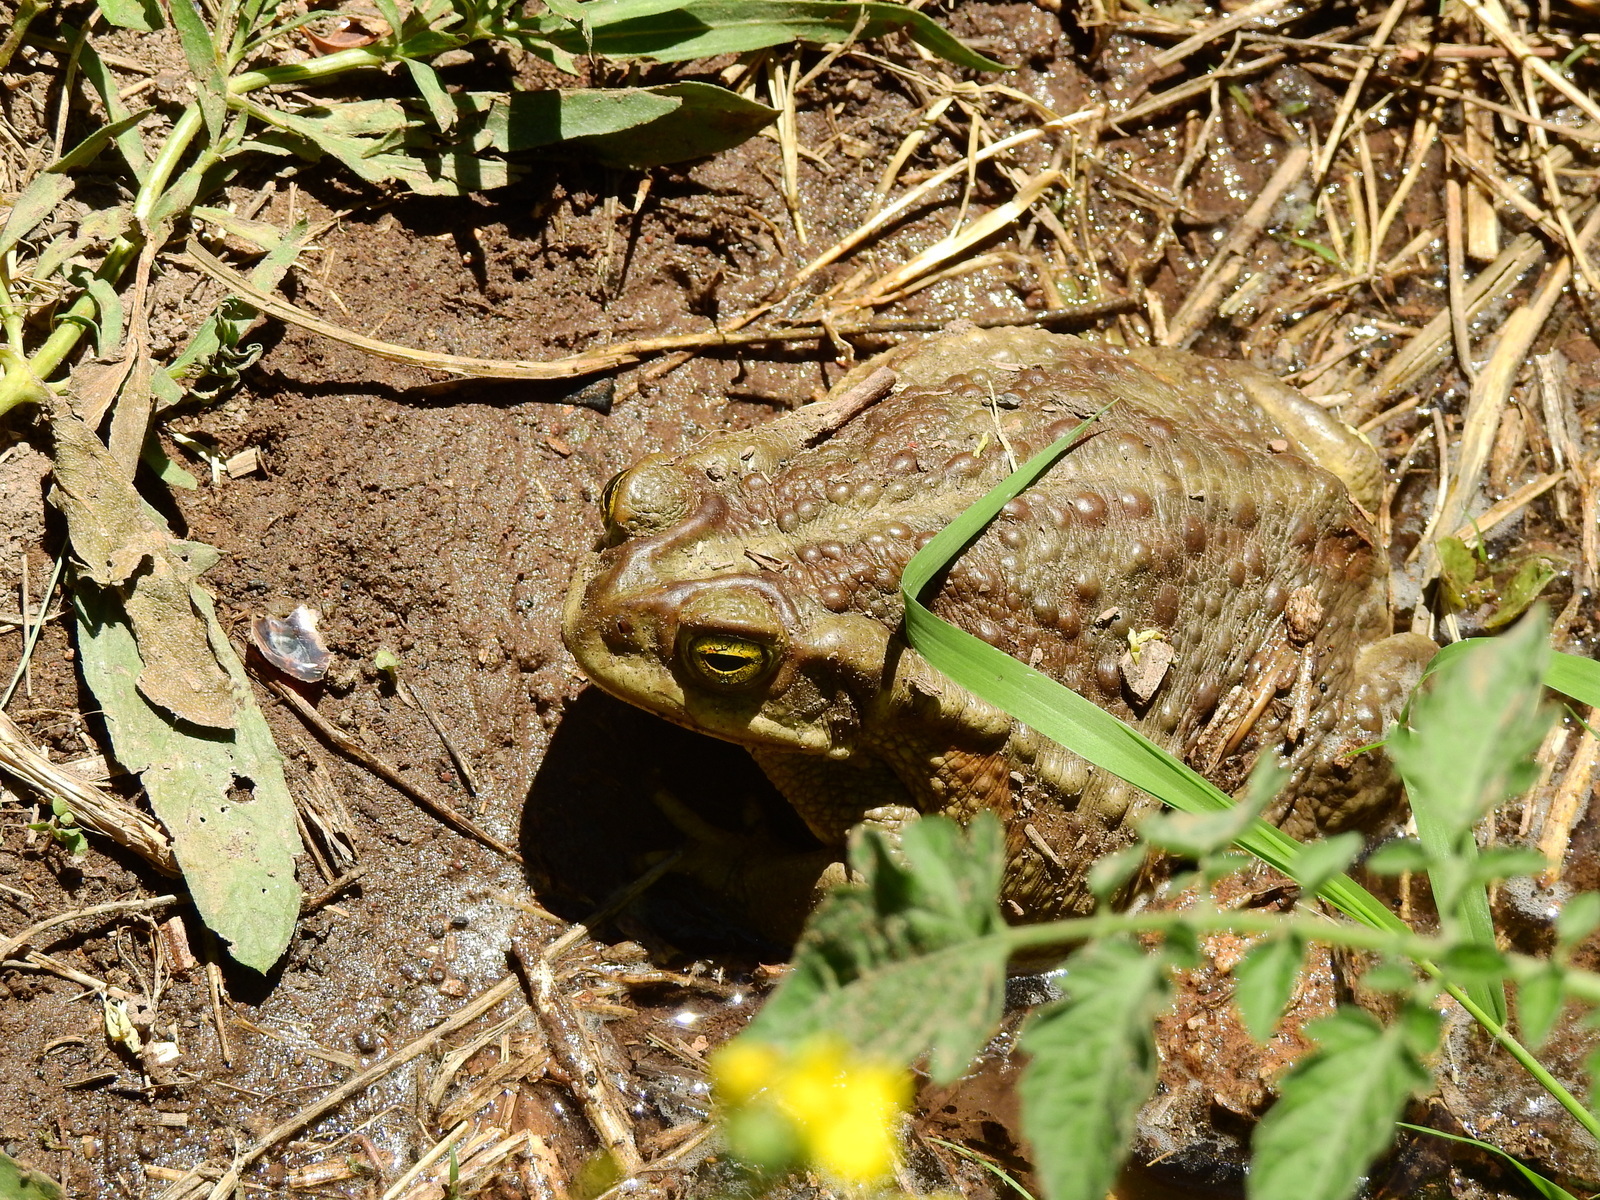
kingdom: Animalia
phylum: Chordata
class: Amphibia
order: Anura
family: Bufonidae
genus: Rhinella
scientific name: Rhinella arenarum
